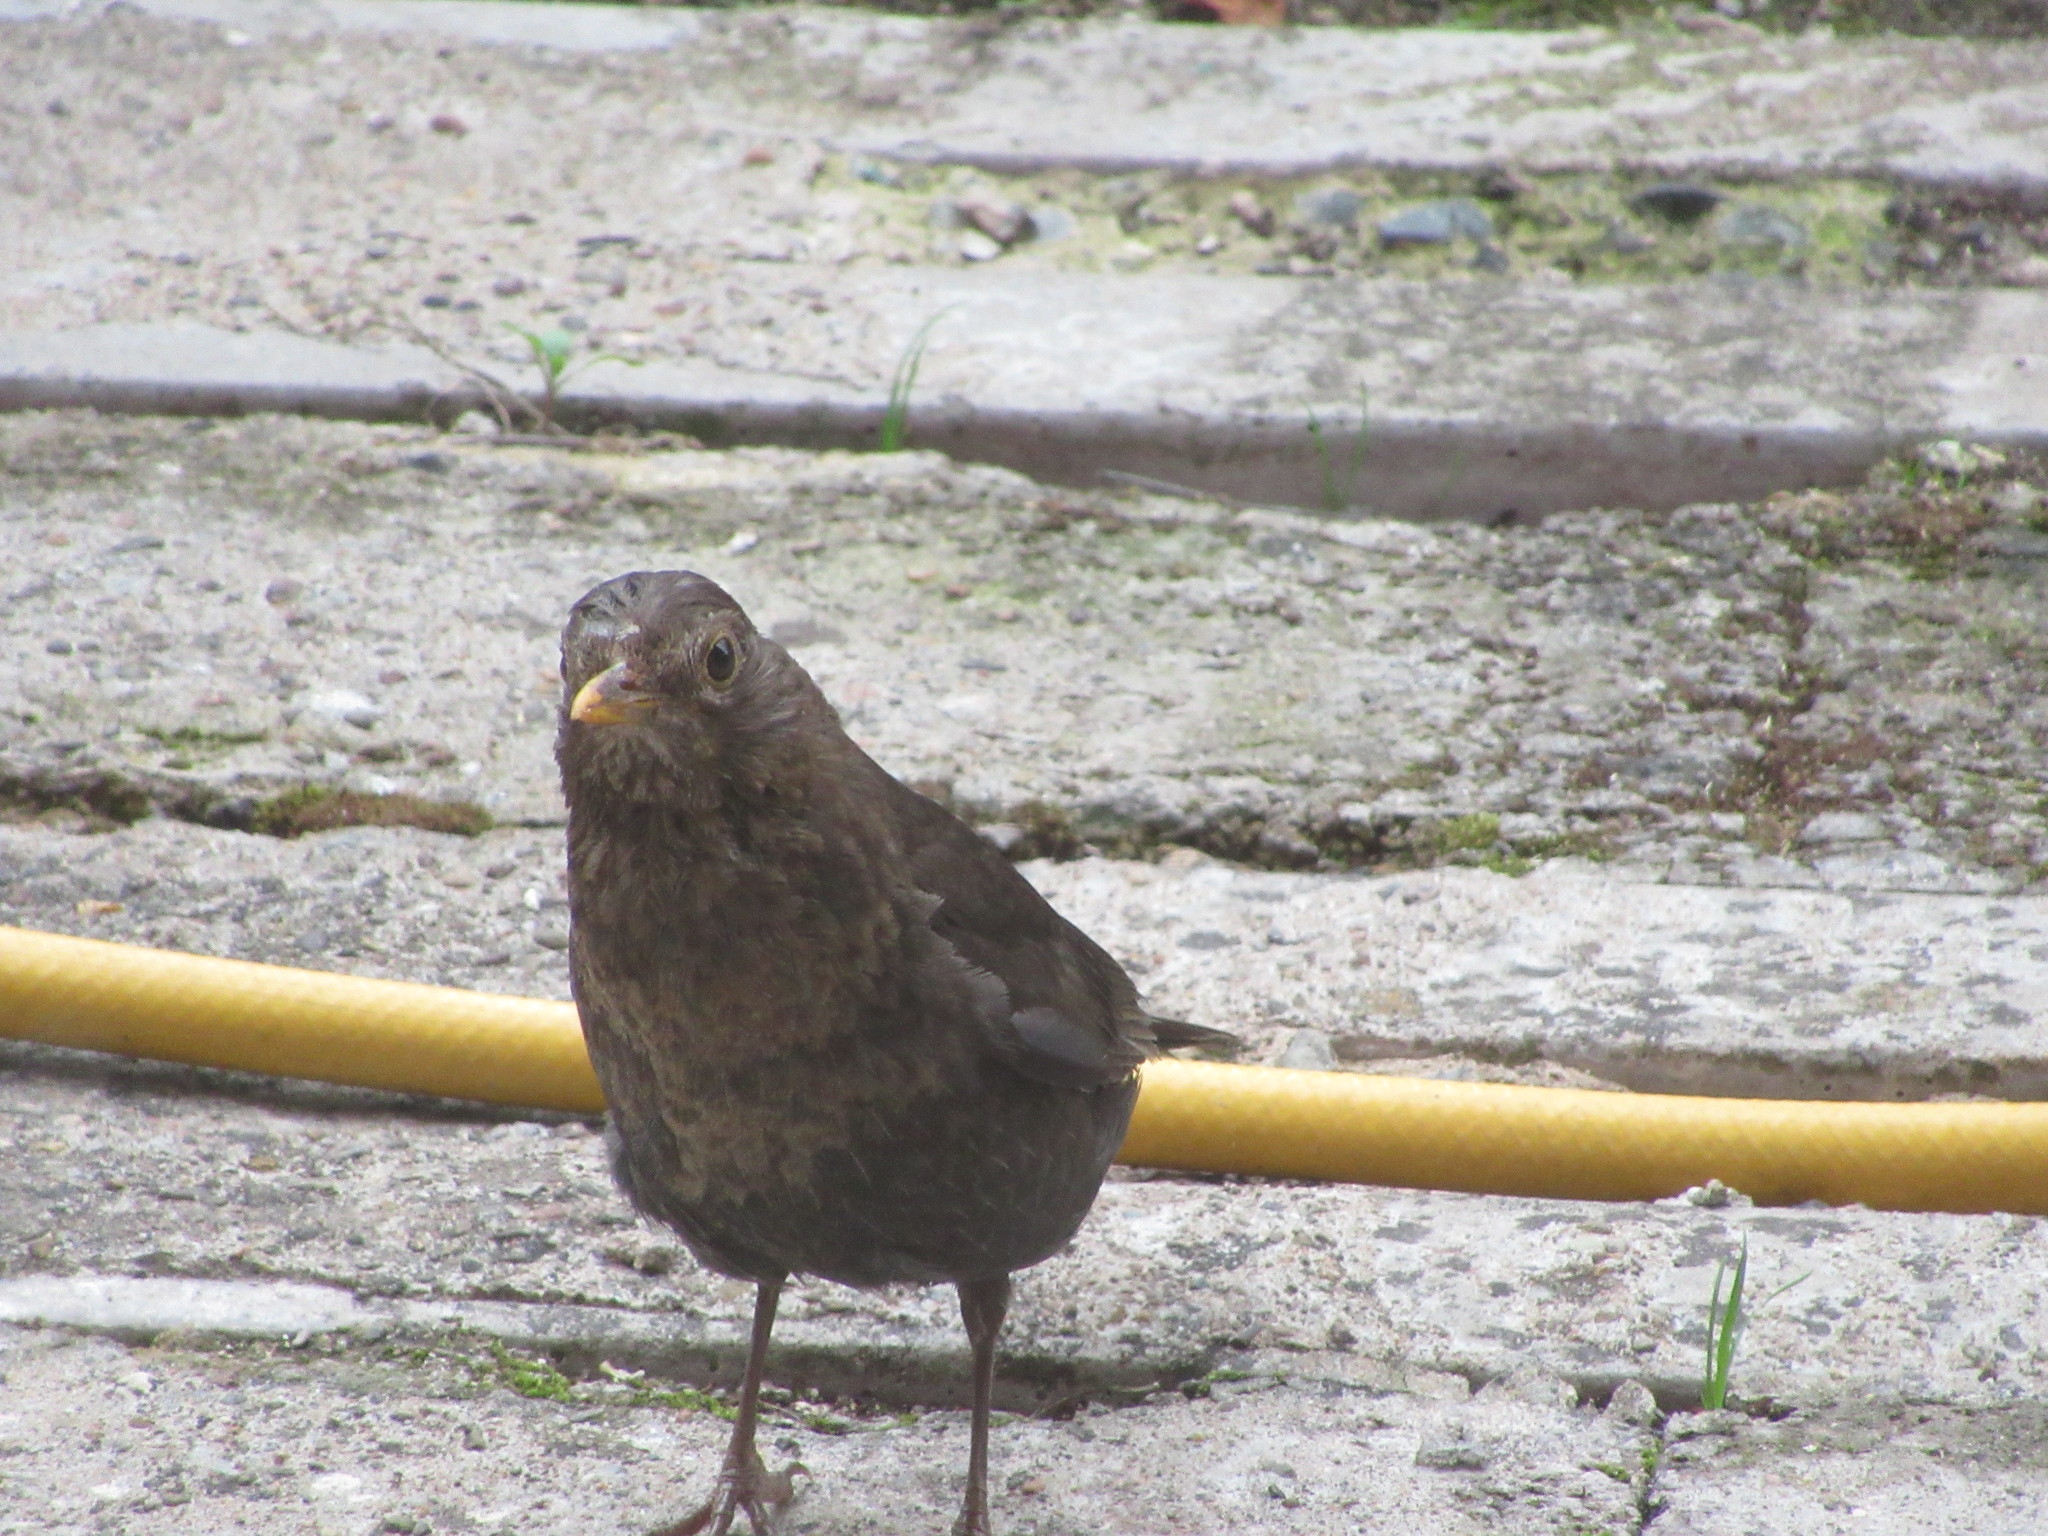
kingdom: Animalia
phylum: Chordata
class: Aves
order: Passeriformes
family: Turdidae
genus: Turdus
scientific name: Turdus merula
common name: Common blackbird
